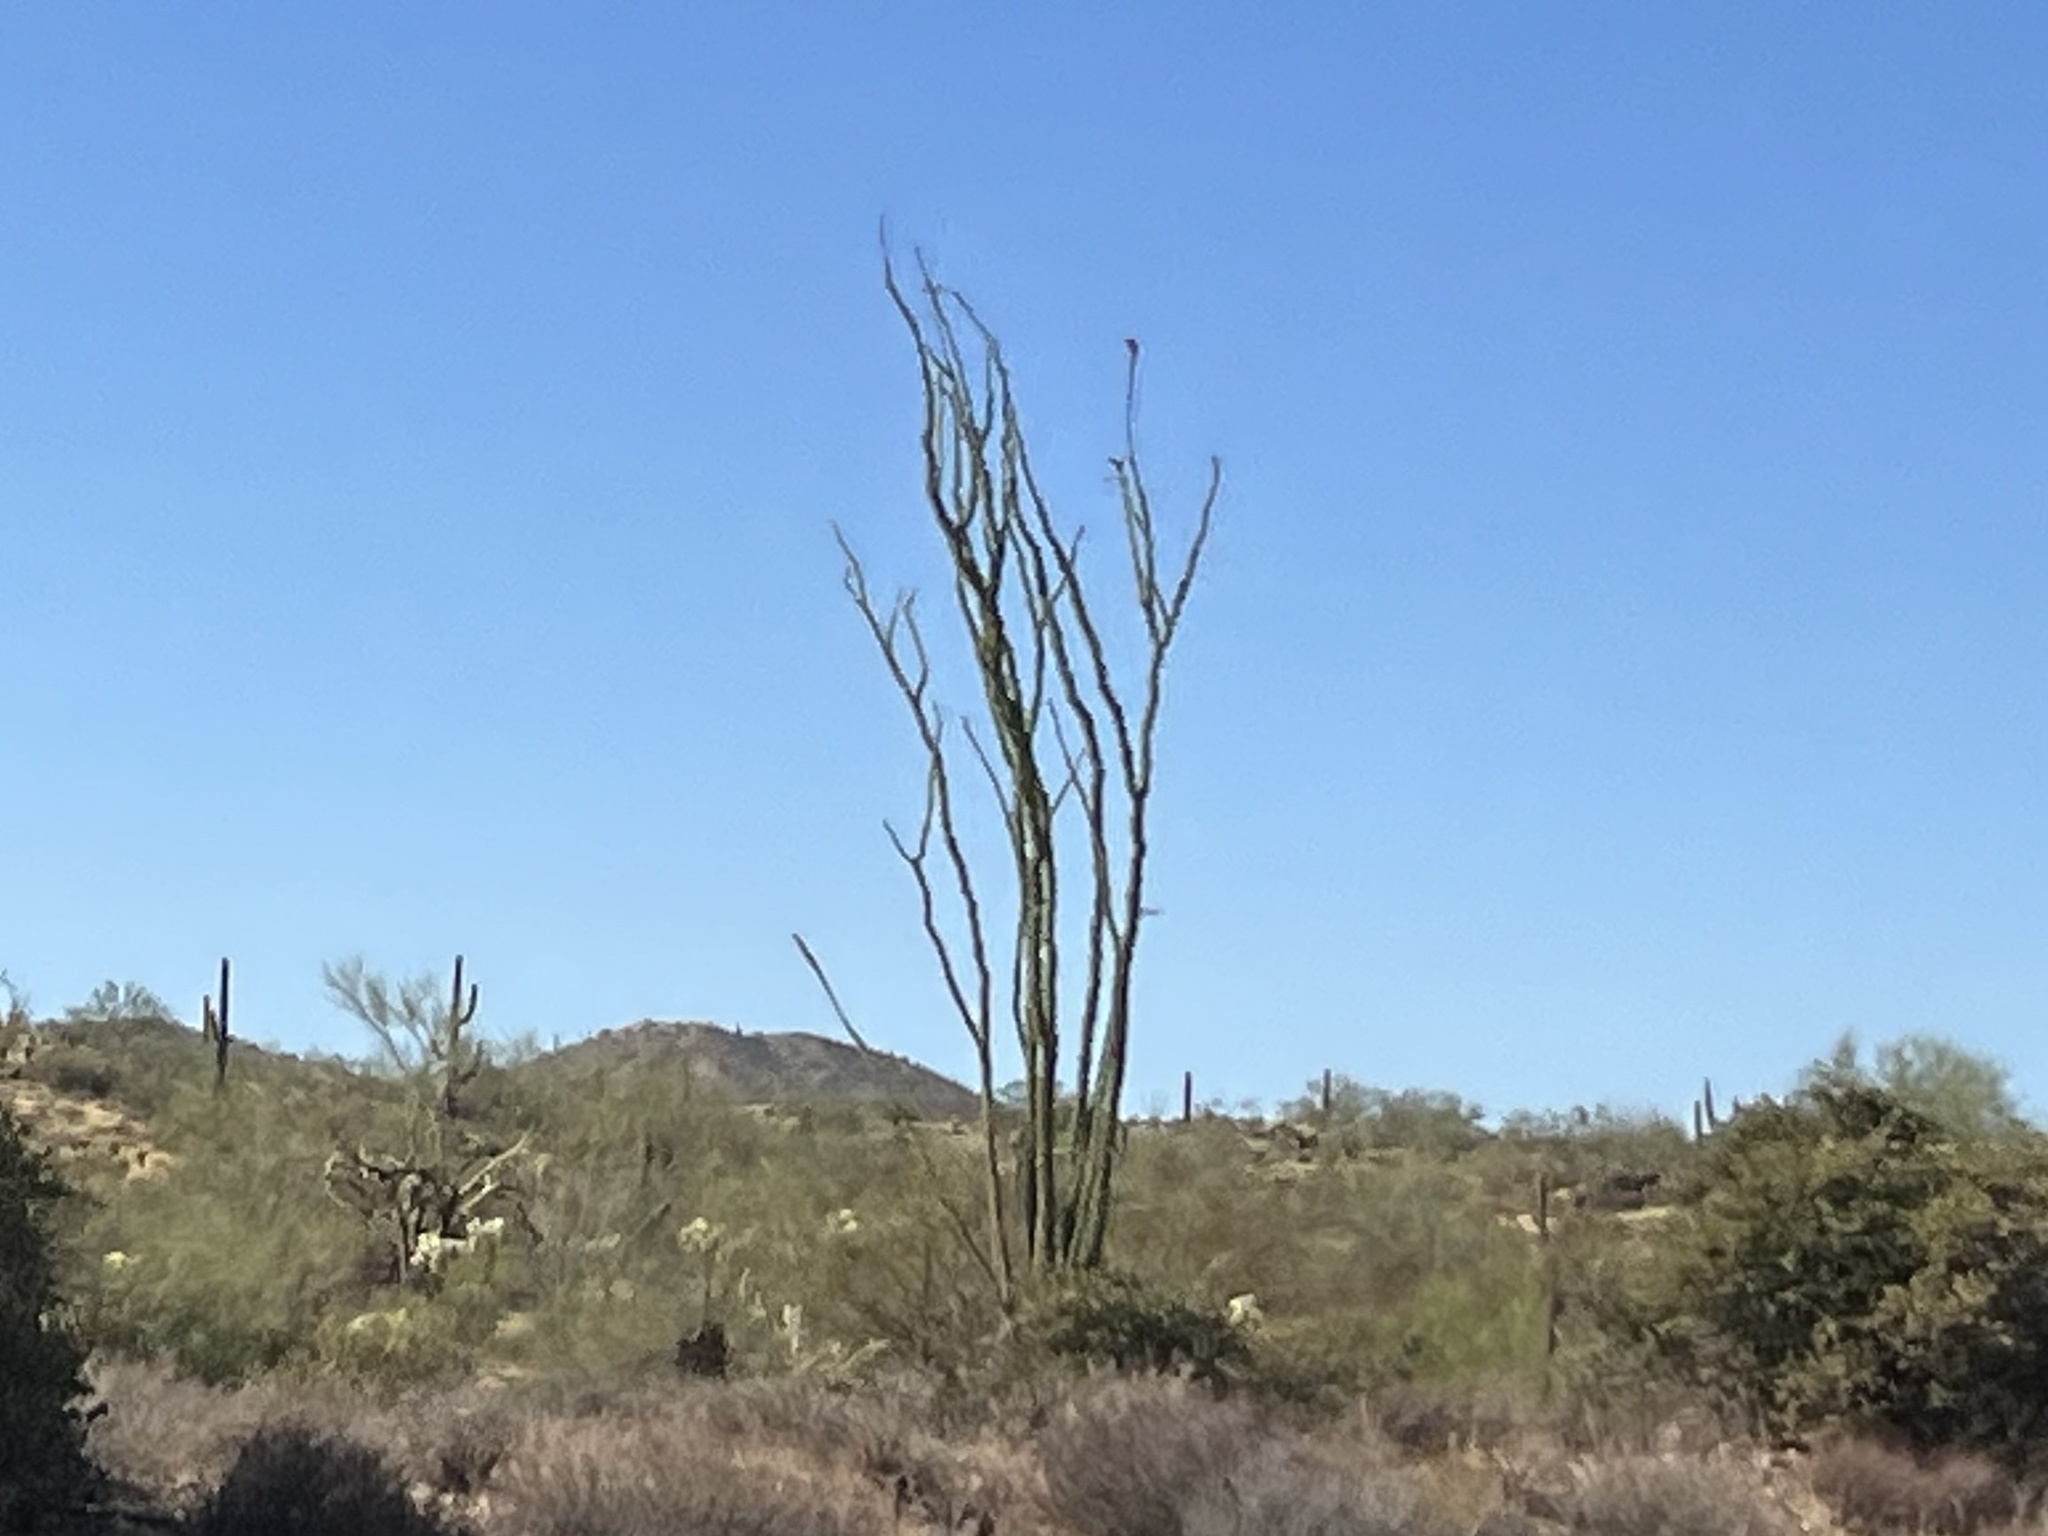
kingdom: Plantae
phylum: Tracheophyta
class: Magnoliopsida
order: Ericales
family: Fouquieriaceae
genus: Fouquieria
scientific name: Fouquieria splendens
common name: Vine-cactus
